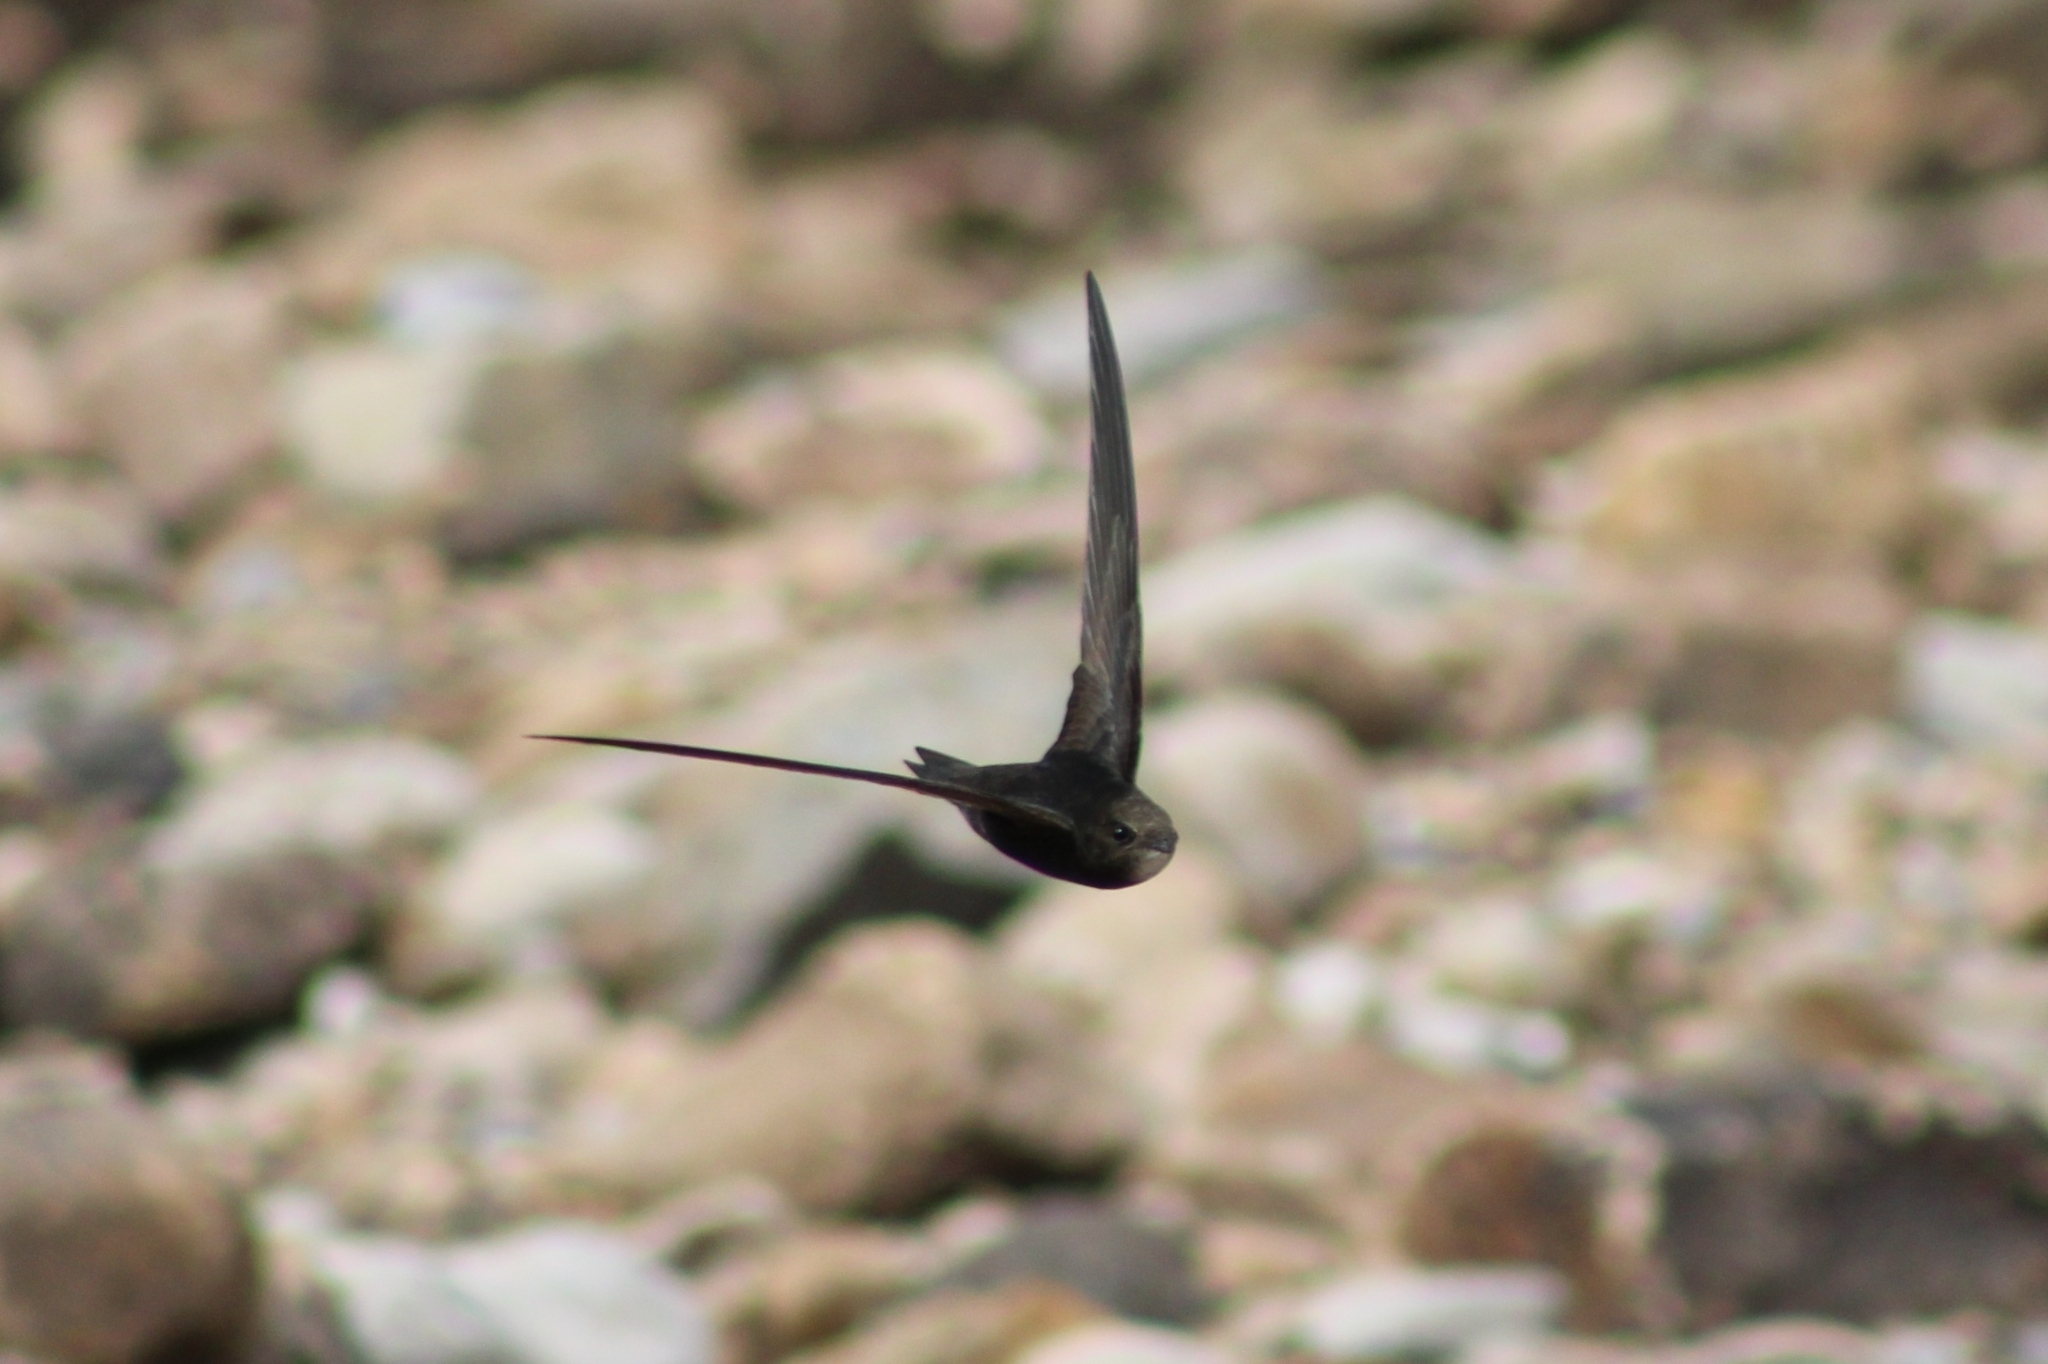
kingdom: Animalia
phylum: Chordata
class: Aves
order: Apodiformes
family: Apodidae
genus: Apus
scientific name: Apus apus
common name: Common swift
